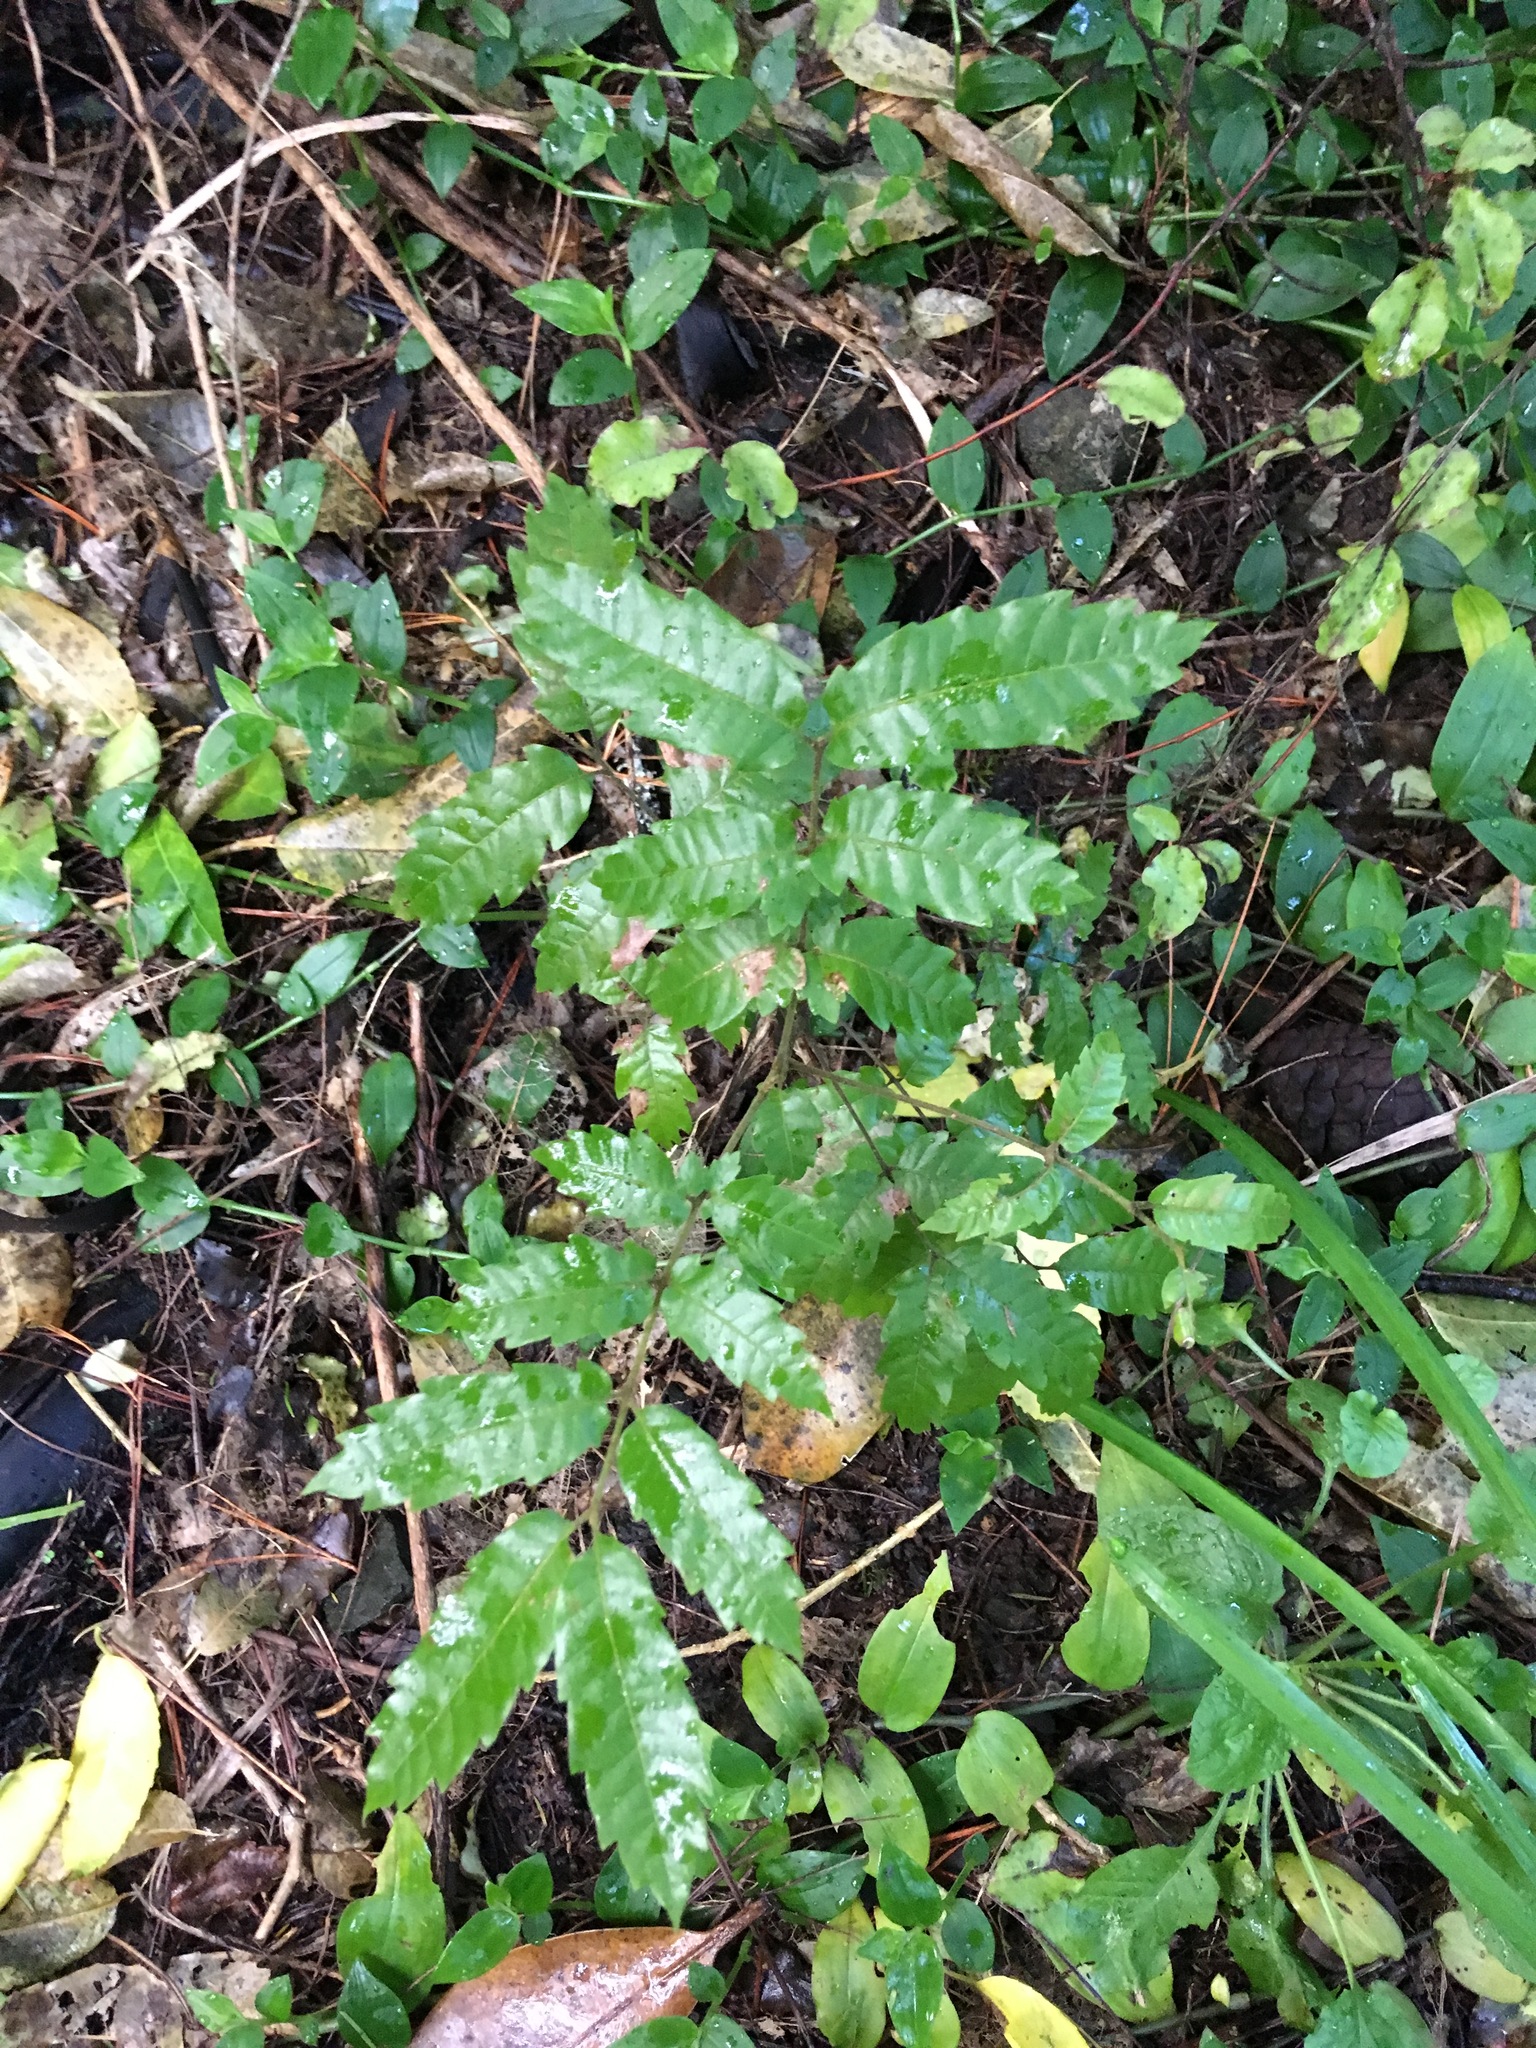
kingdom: Plantae
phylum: Tracheophyta
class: Magnoliopsida
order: Sapindales
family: Sapindaceae
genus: Alectryon
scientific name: Alectryon excelsus
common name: Three kings titoki
